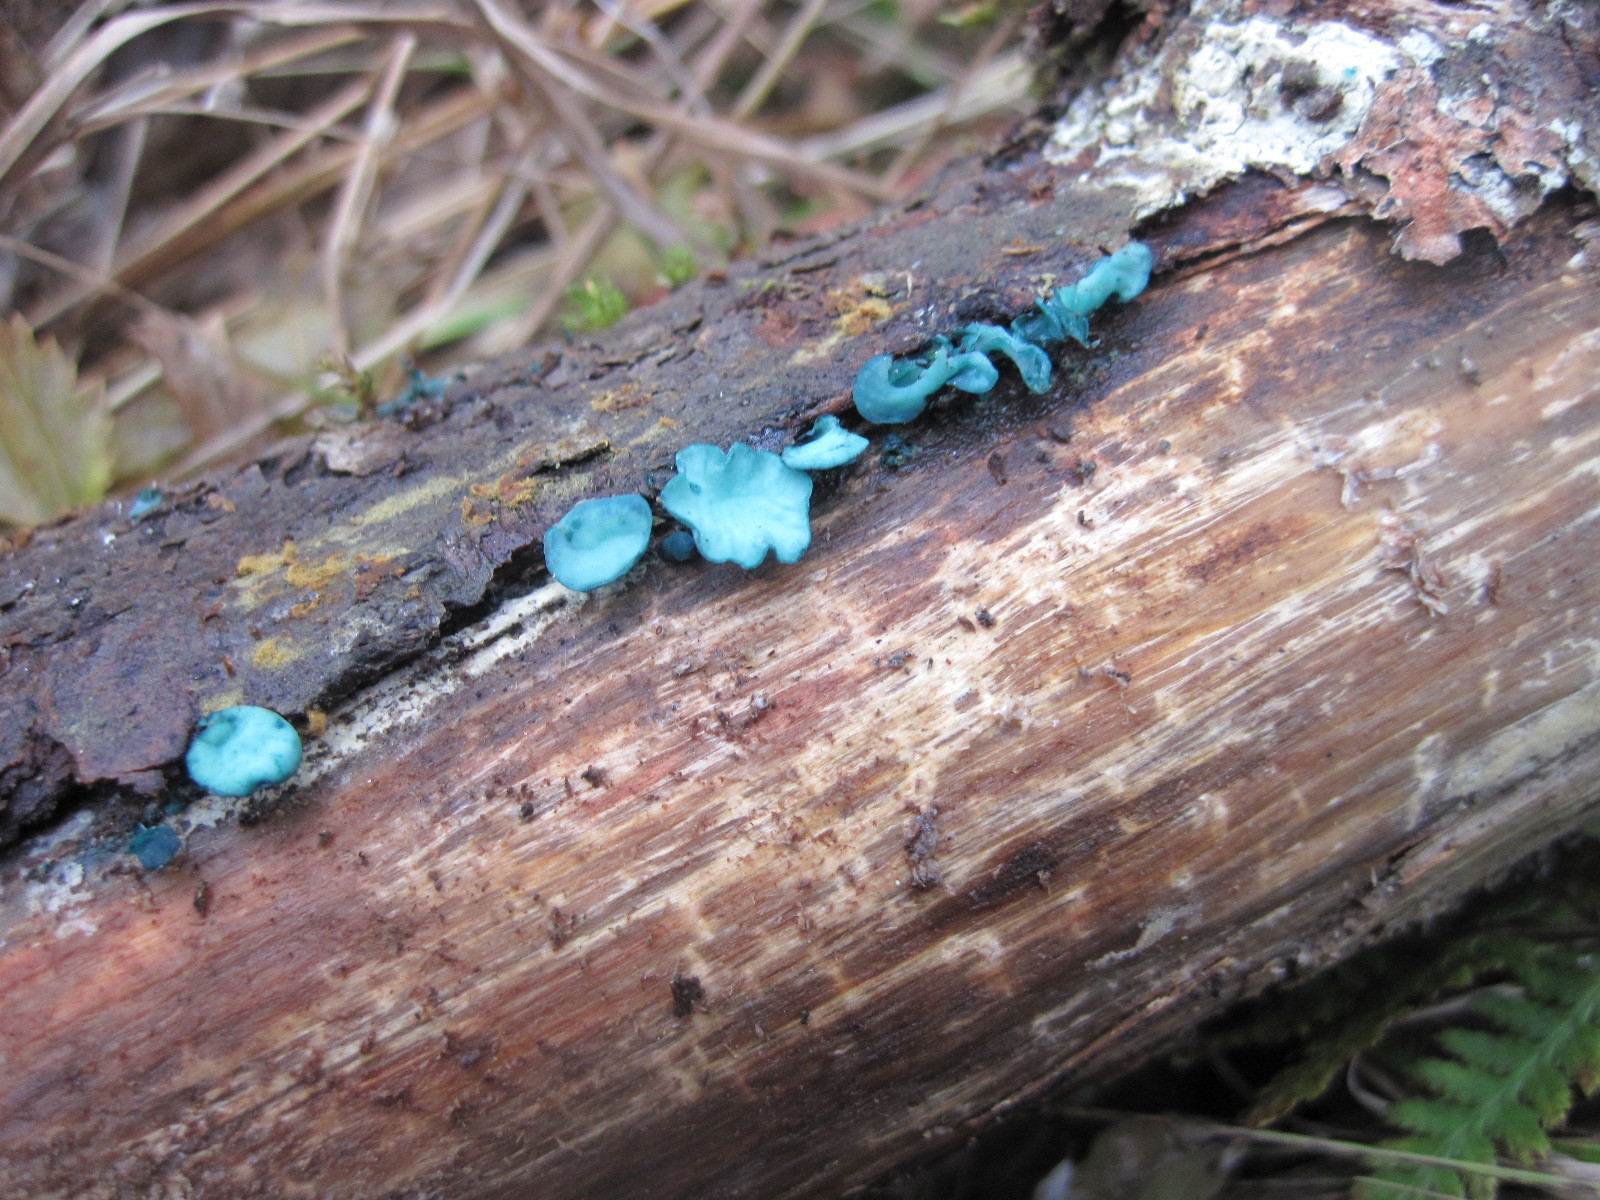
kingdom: Fungi
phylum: Ascomycota
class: Leotiomycetes
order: Helotiales
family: Chlorociboriaceae
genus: Chlorociboria
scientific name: Chlorociboria aeruginascens
